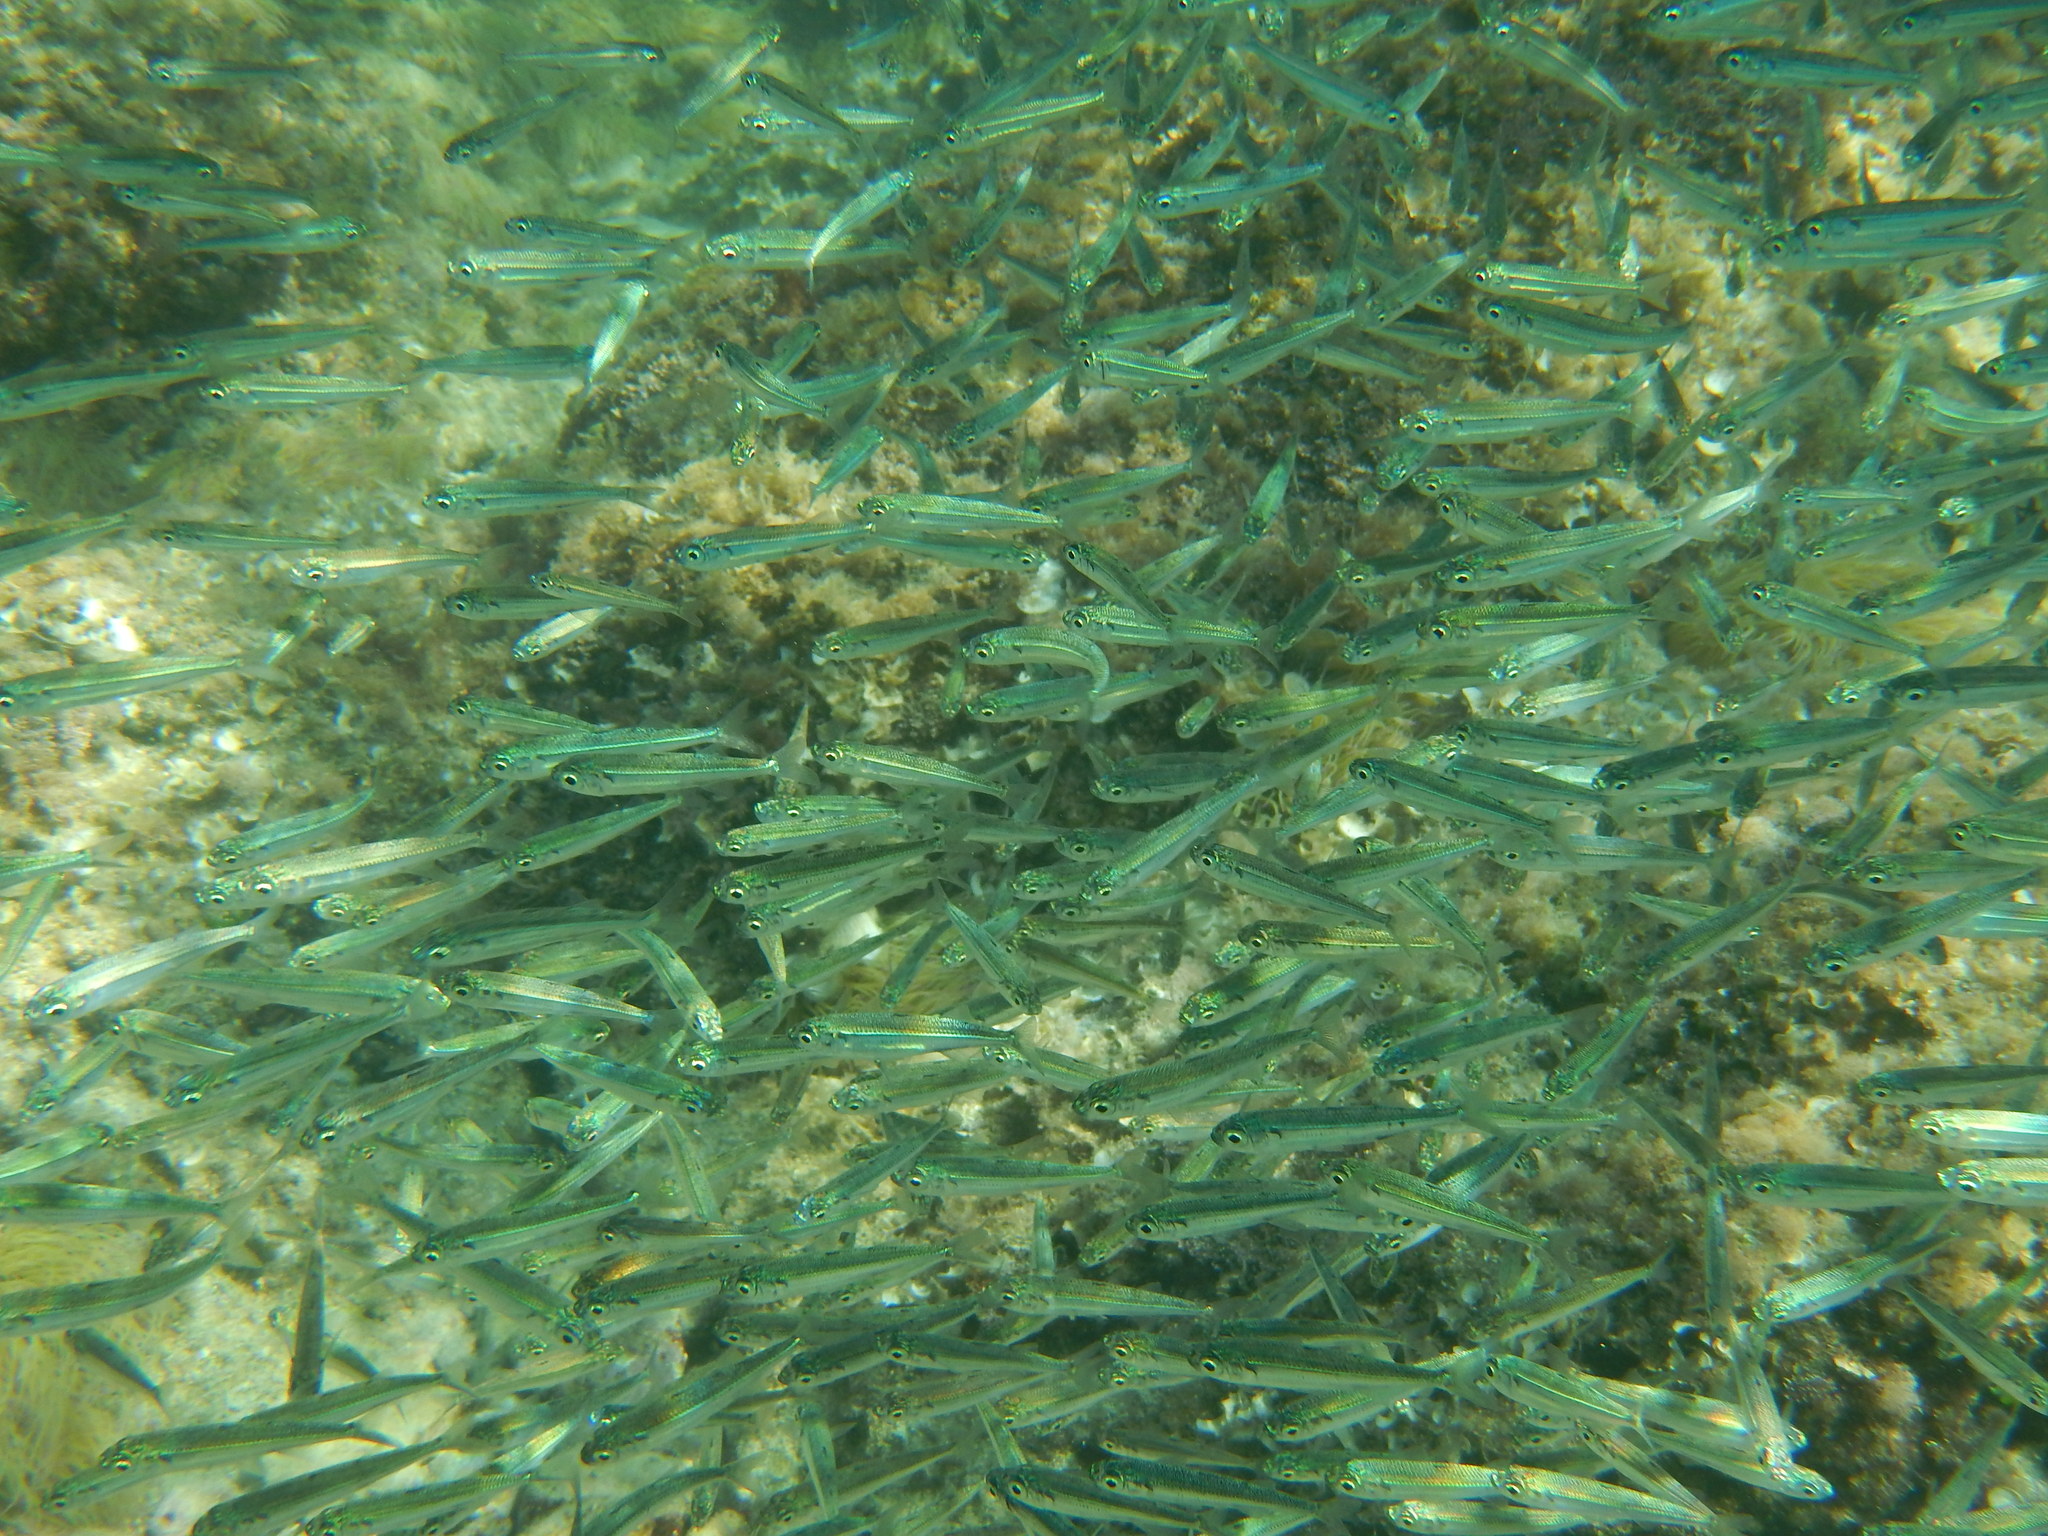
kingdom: Animalia
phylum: Chordata
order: Atheriniformes
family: Atherinidae
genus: Atherina
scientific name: Atherina boyeri
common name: Big-scale sand smelt
